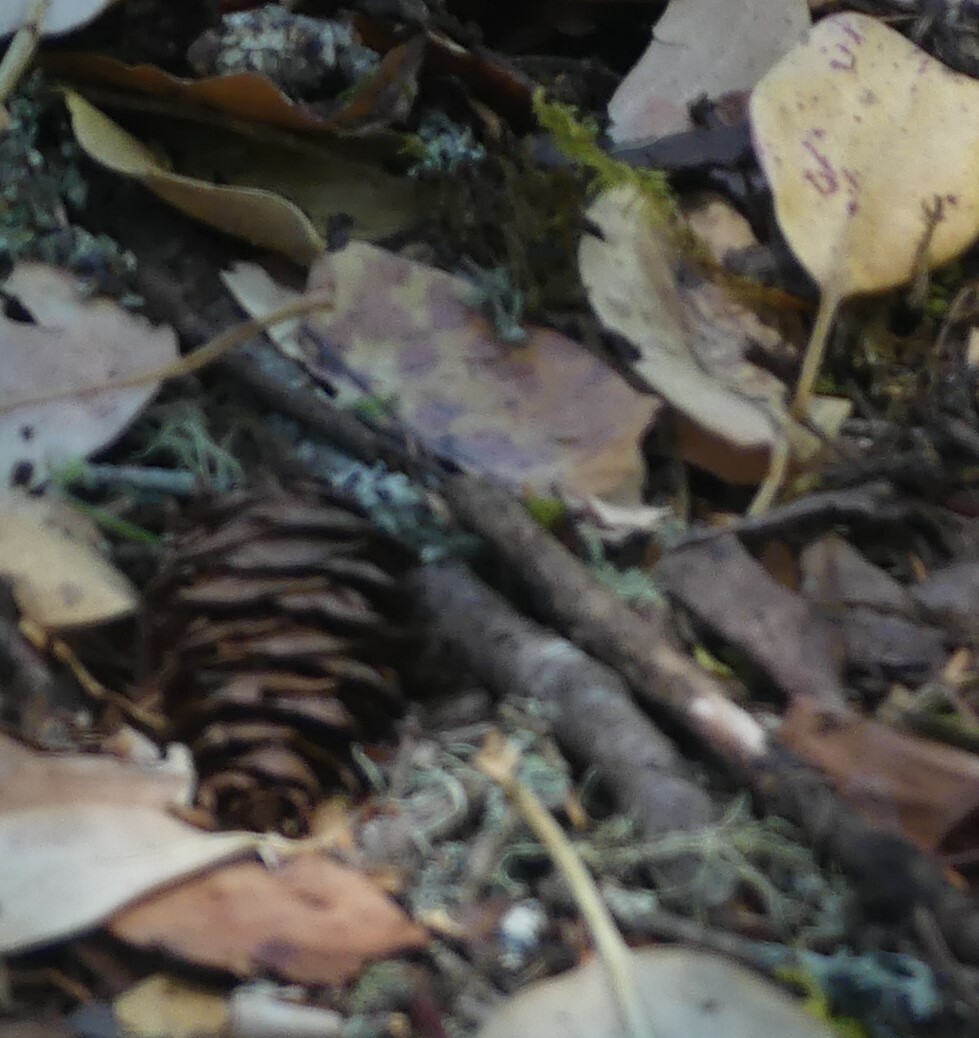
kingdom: Plantae
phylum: Tracheophyta
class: Pinopsida
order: Pinales
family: Pinaceae
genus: Pseudotsuga
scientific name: Pseudotsuga menziesii
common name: Douglas fir
